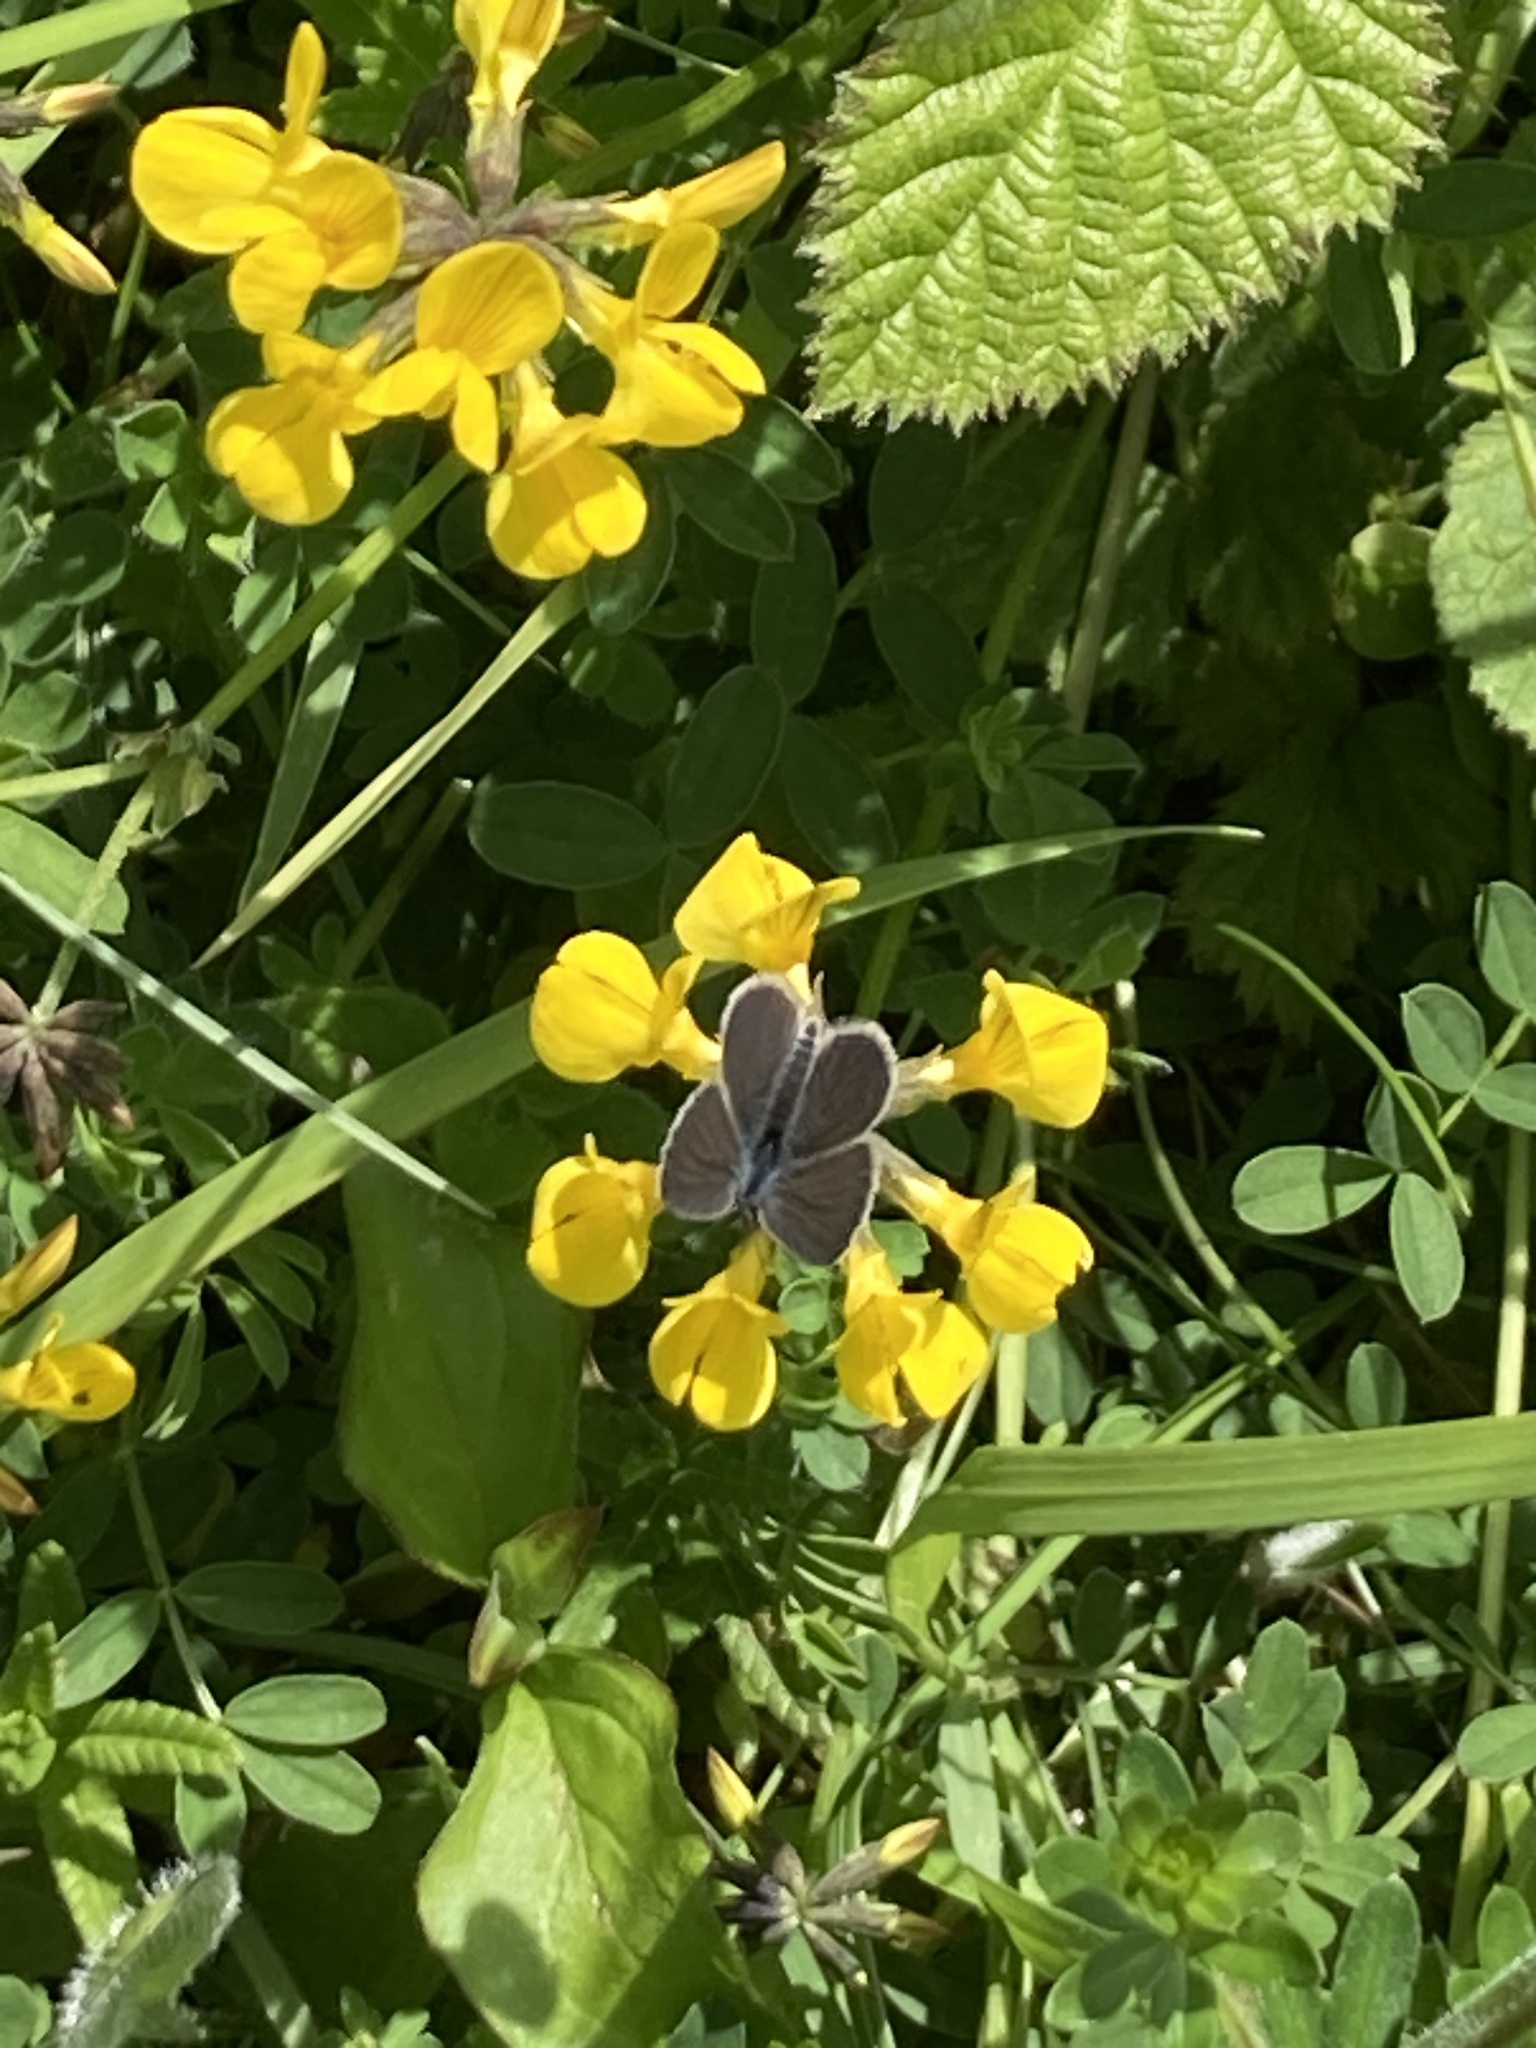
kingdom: Animalia
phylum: Arthropoda
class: Insecta
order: Lepidoptera
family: Lycaenidae
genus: Cupido
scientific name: Cupido minimus
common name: Small blue
